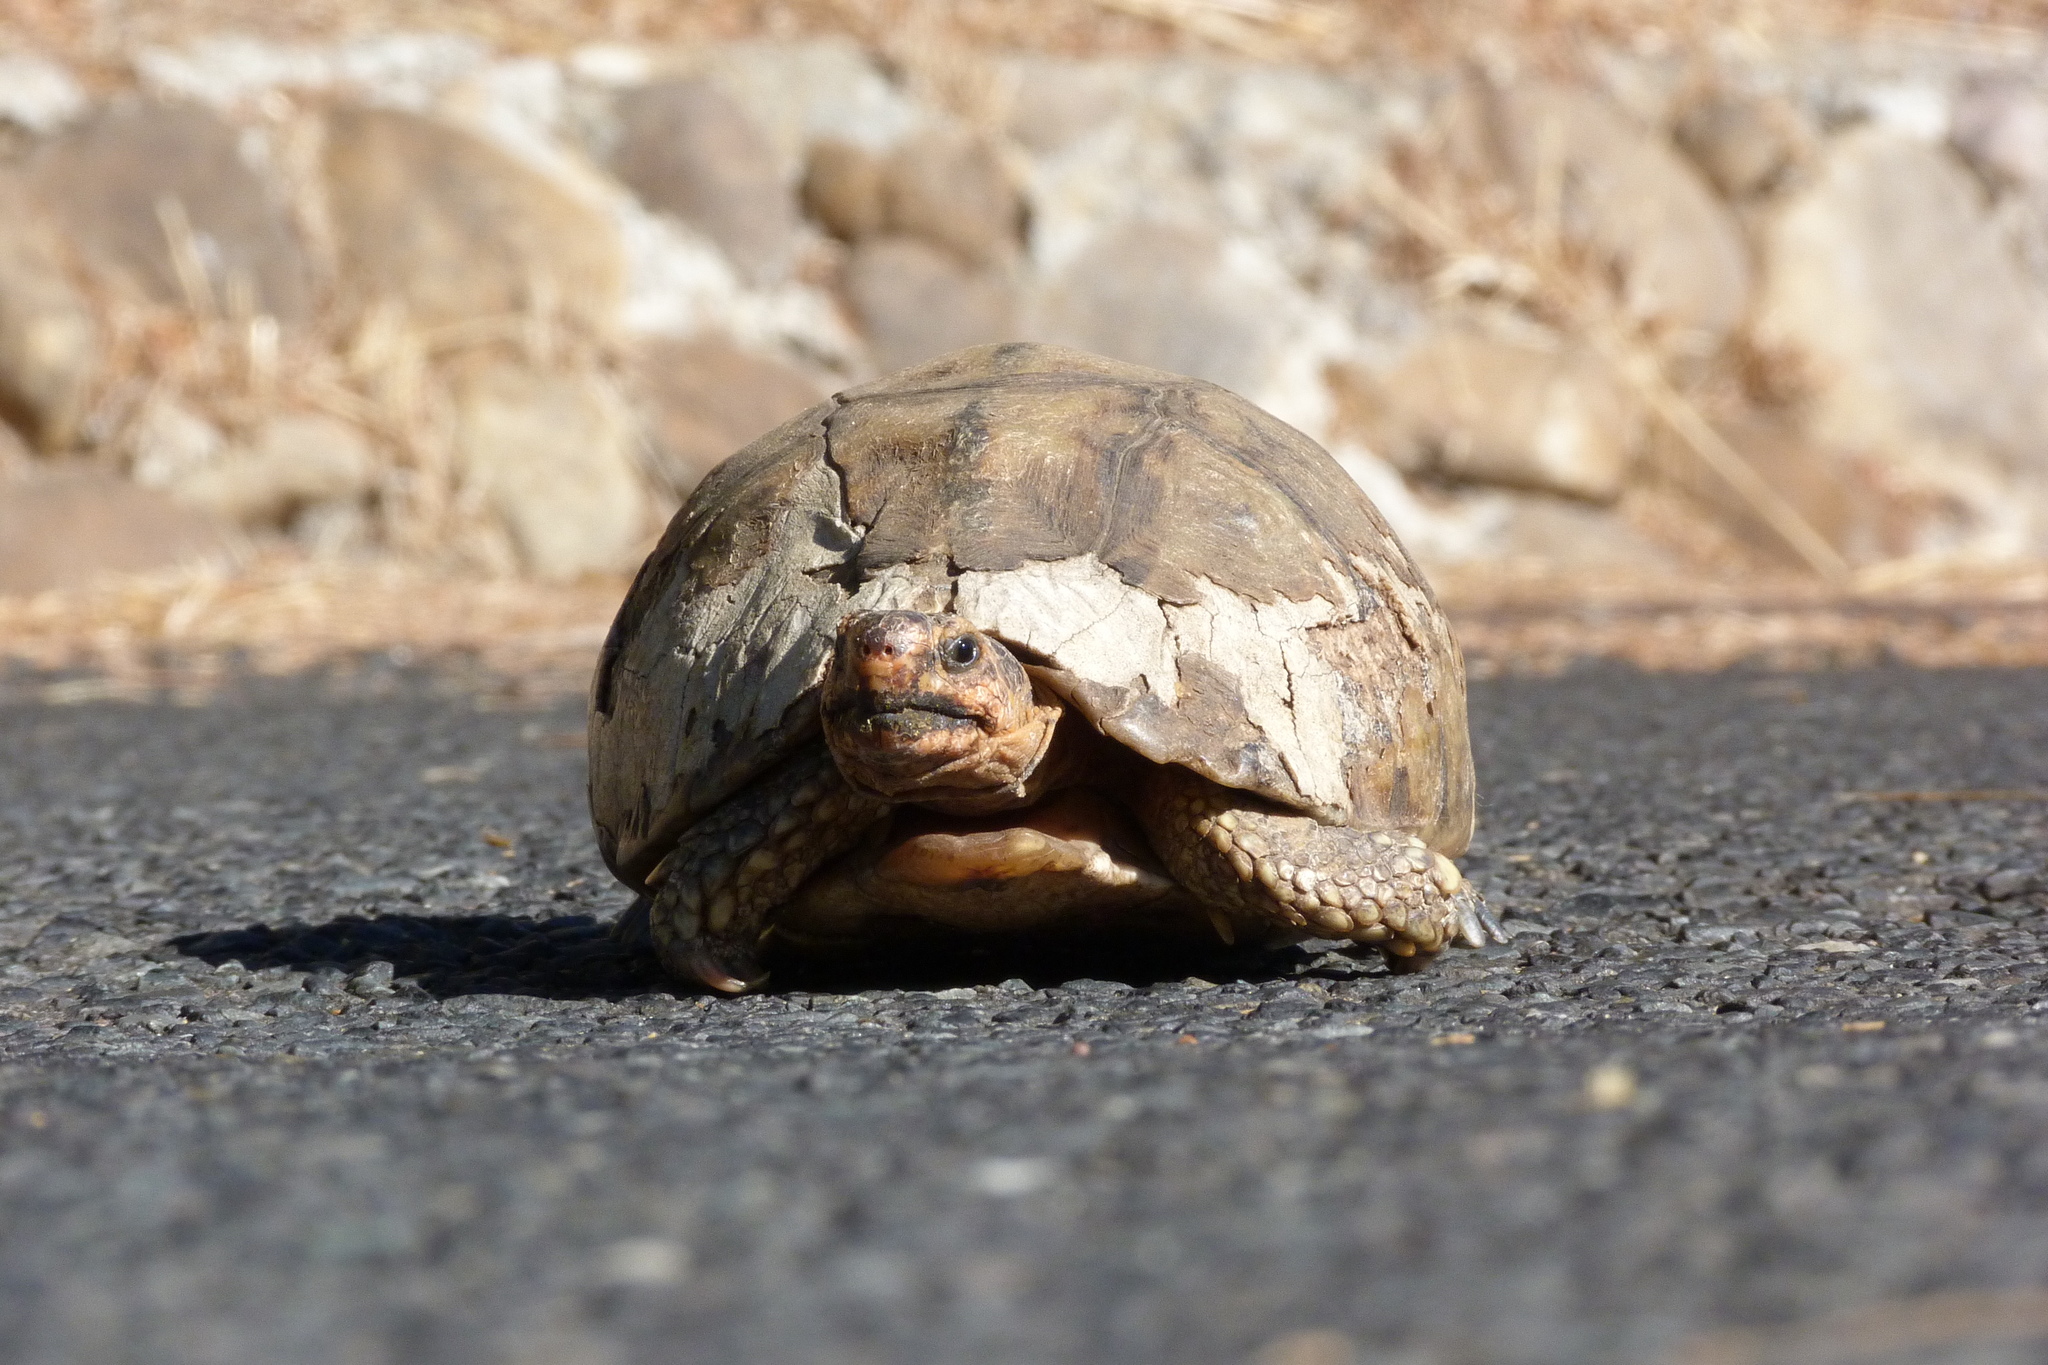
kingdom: Animalia
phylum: Chordata
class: Testudines
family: Testudinidae
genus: Chersina
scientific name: Chersina angulata
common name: South african bowsprit tortoise
